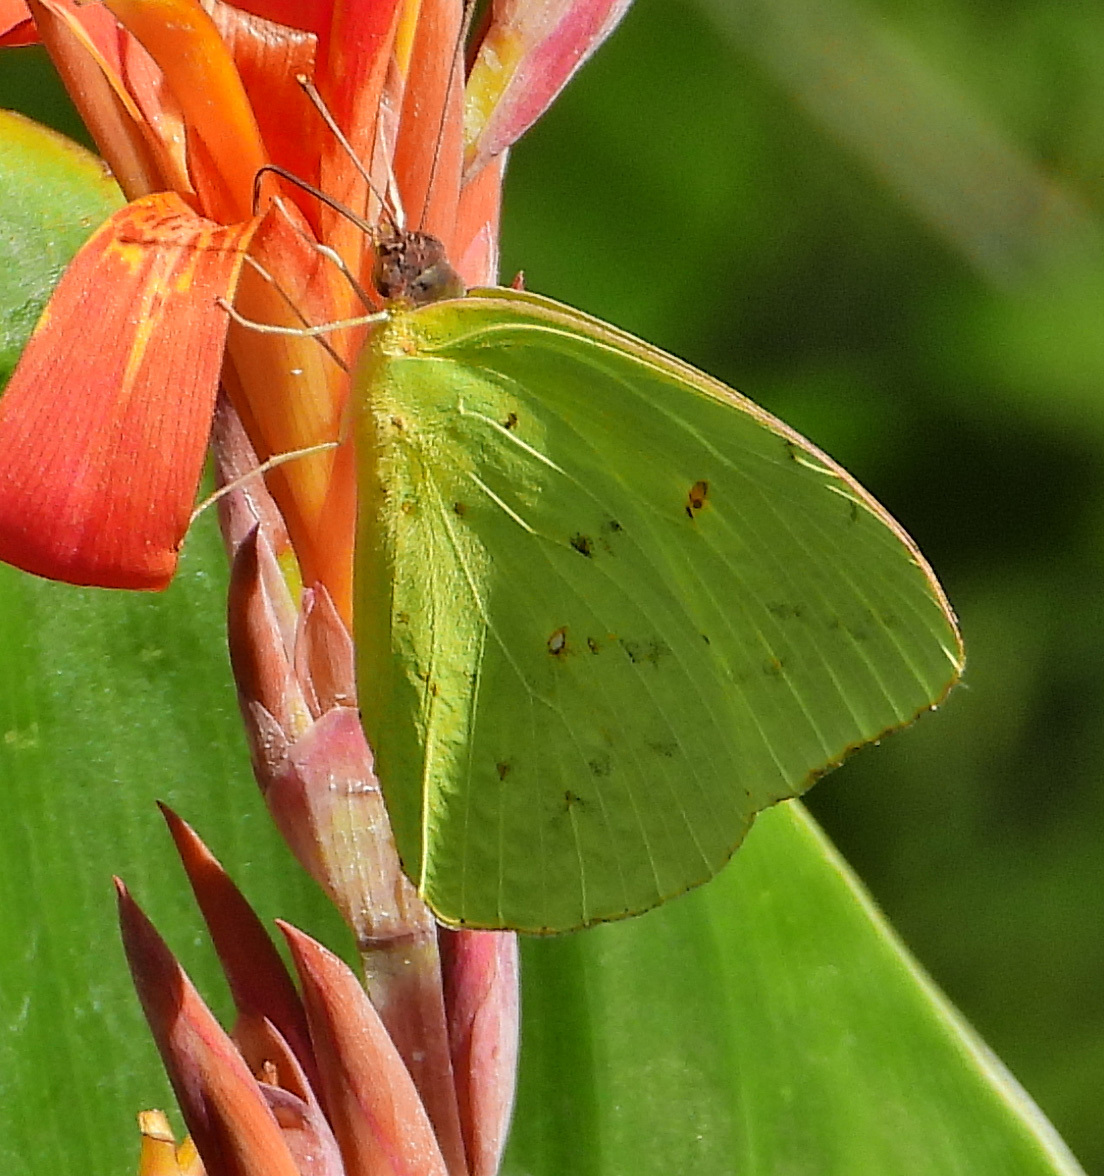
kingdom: Animalia
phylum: Arthropoda
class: Insecta
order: Lepidoptera
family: Pieridae
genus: Phoebis
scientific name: Phoebis sennae
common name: Cloudless sulphur
